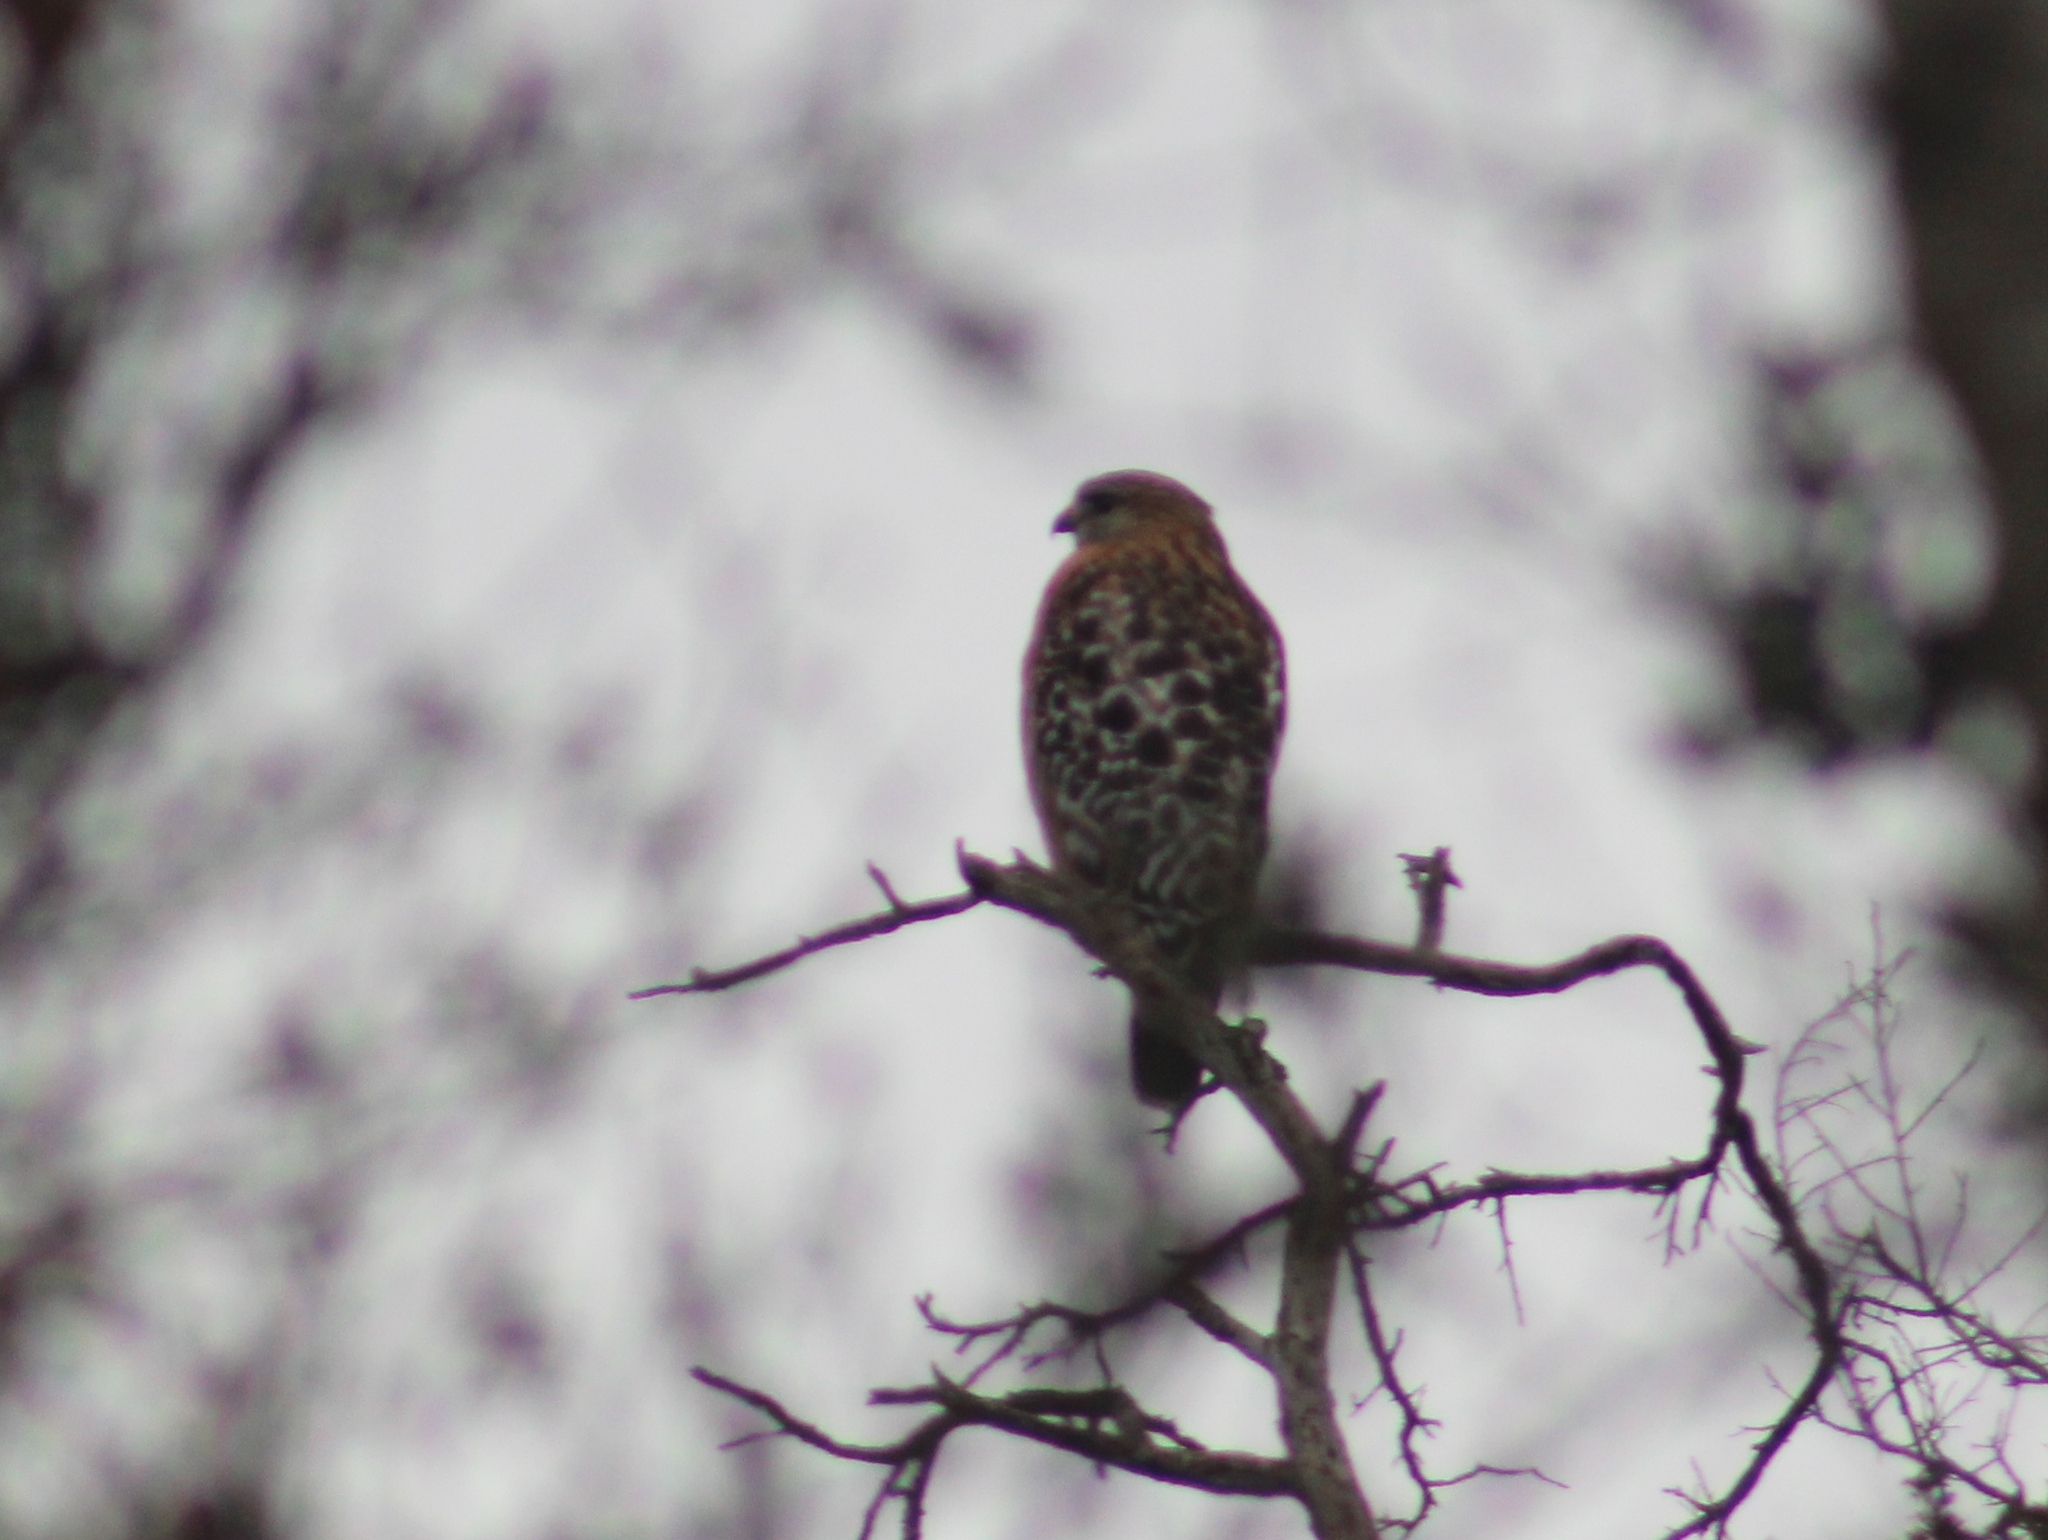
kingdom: Animalia
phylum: Chordata
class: Aves
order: Accipitriformes
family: Accipitridae
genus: Buteo
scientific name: Buteo lineatus
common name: Red-shouldered hawk
